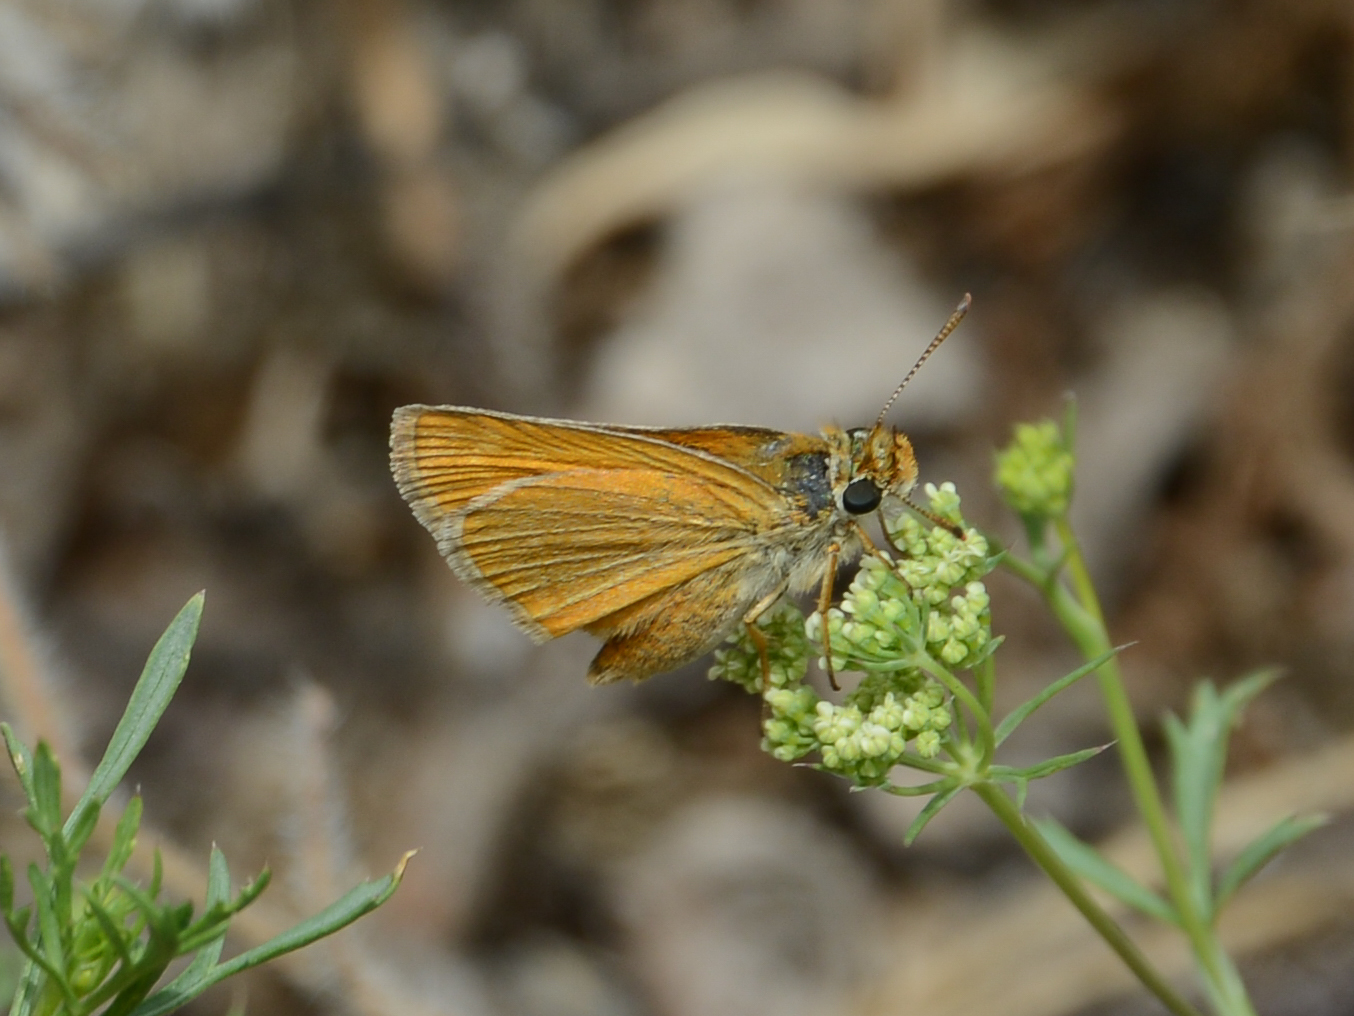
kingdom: Animalia
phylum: Arthropoda
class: Insecta
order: Lepidoptera
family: Hesperiidae
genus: Thymelicus
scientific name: Thymelicus acteon
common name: Lulworth skipper
